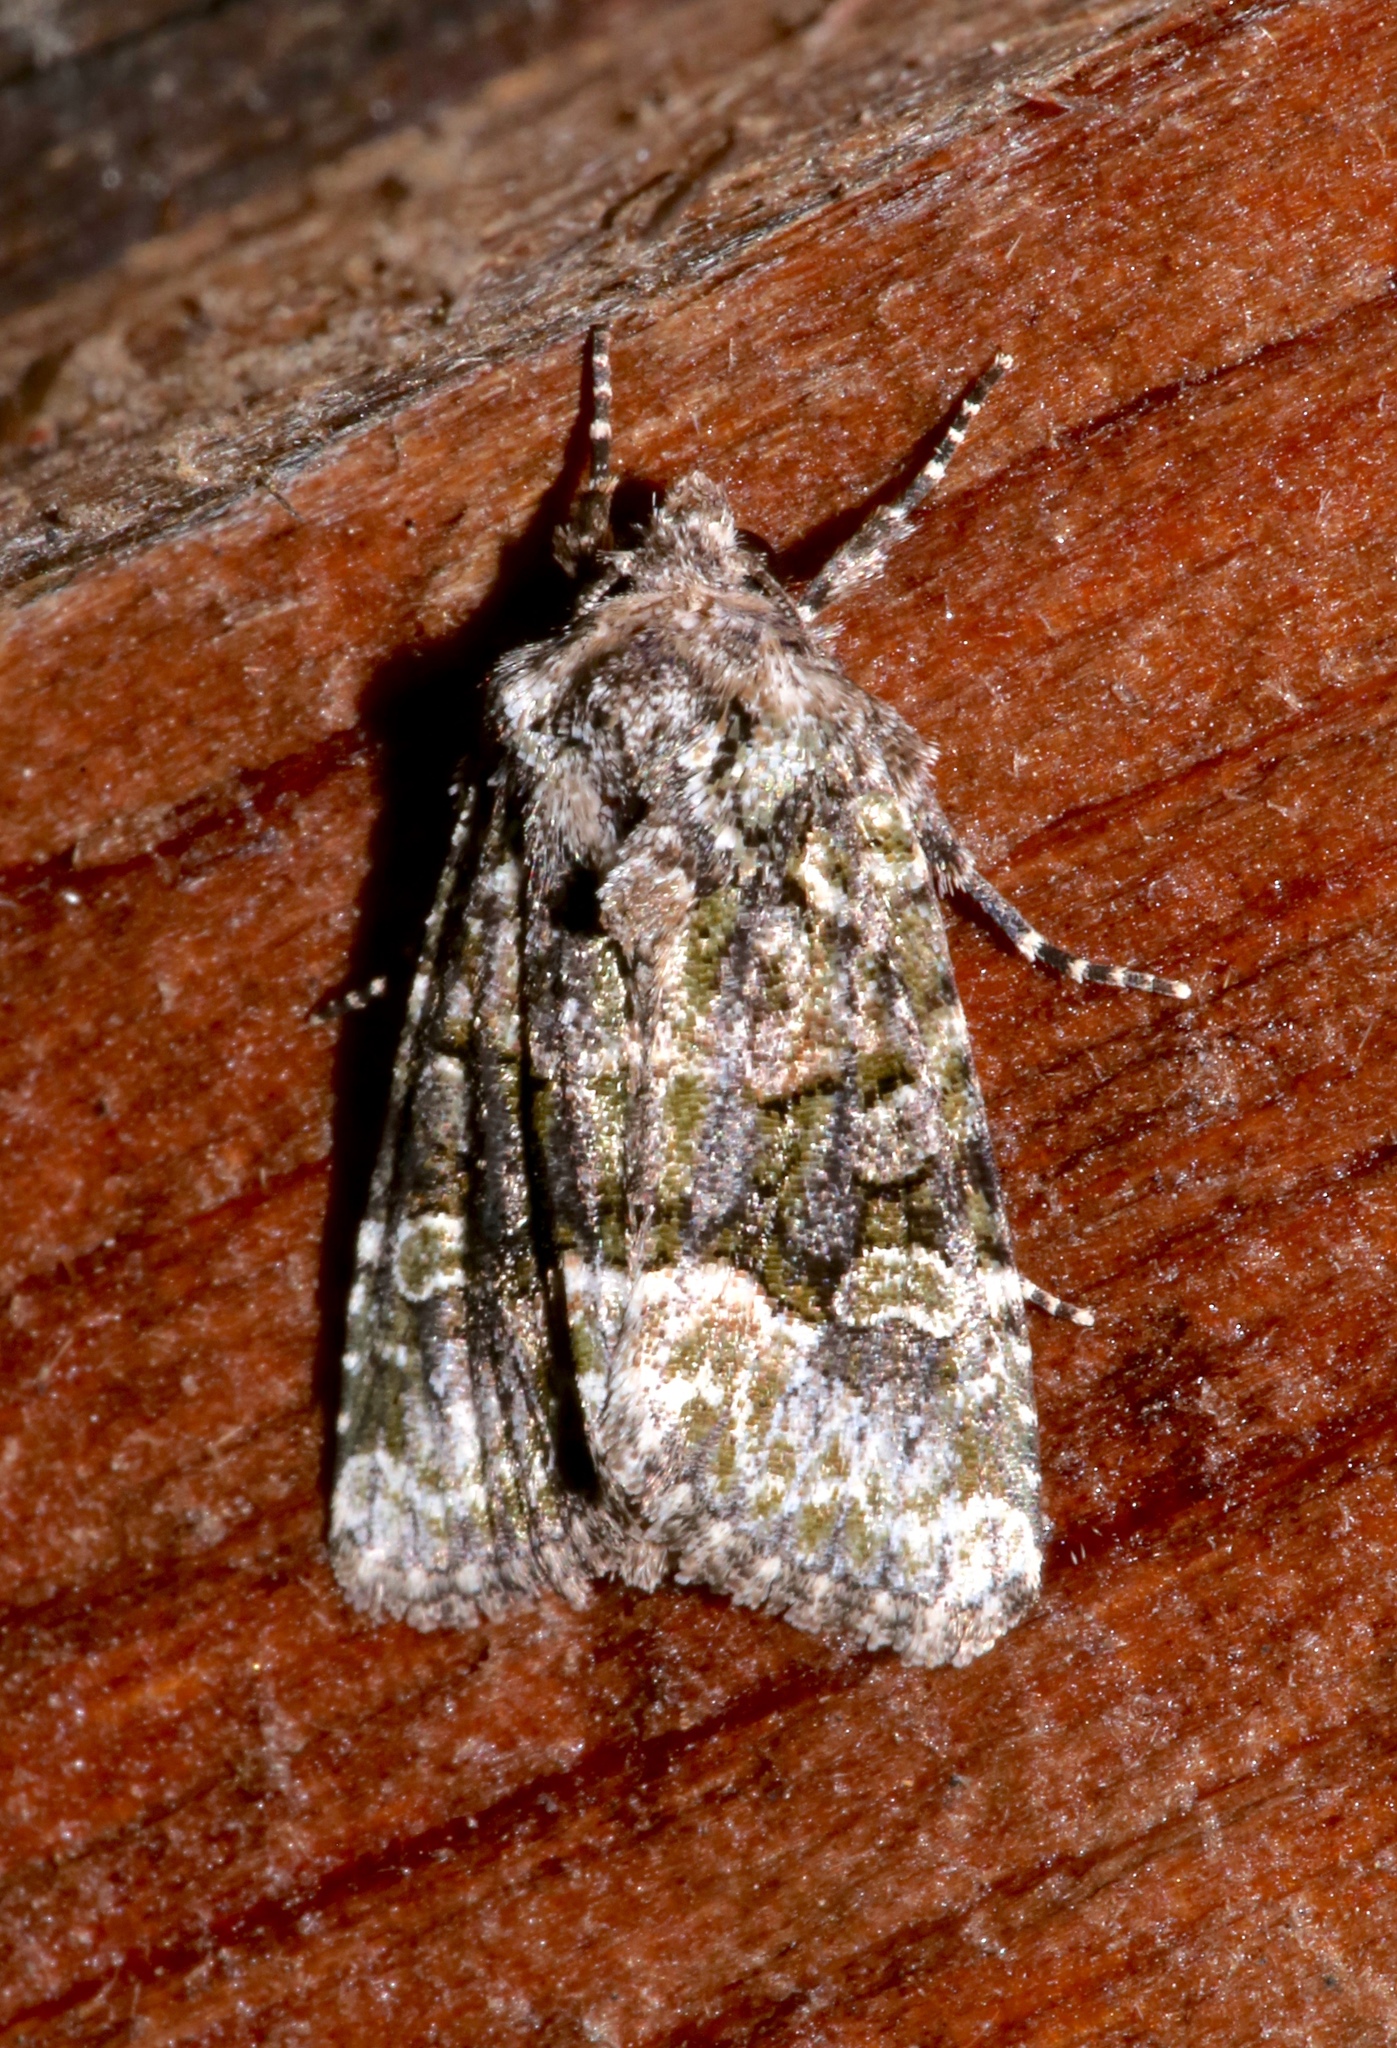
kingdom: Animalia
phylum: Arthropoda
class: Insecta
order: Lepidoptera
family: Noctuidae
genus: Lacinipolia
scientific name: Lacinipolia olivacea
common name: Olive arches moth
